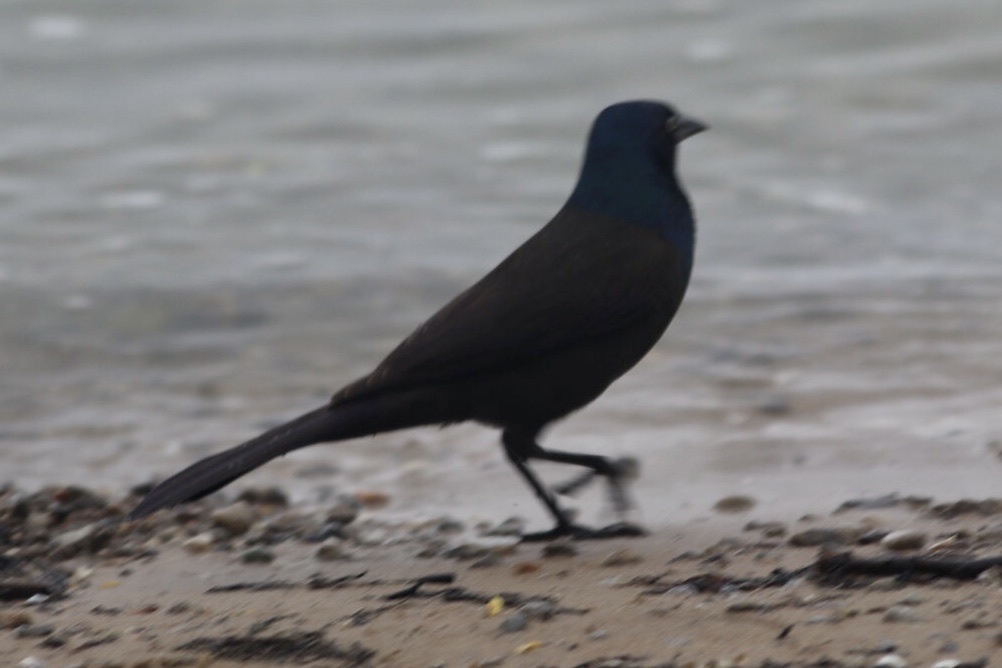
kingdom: Animalia
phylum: Chordata
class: Aves
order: Passeriformes
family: Icteridae
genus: Quiscalus
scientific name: Quiscalus quiscula
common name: Common grackle
